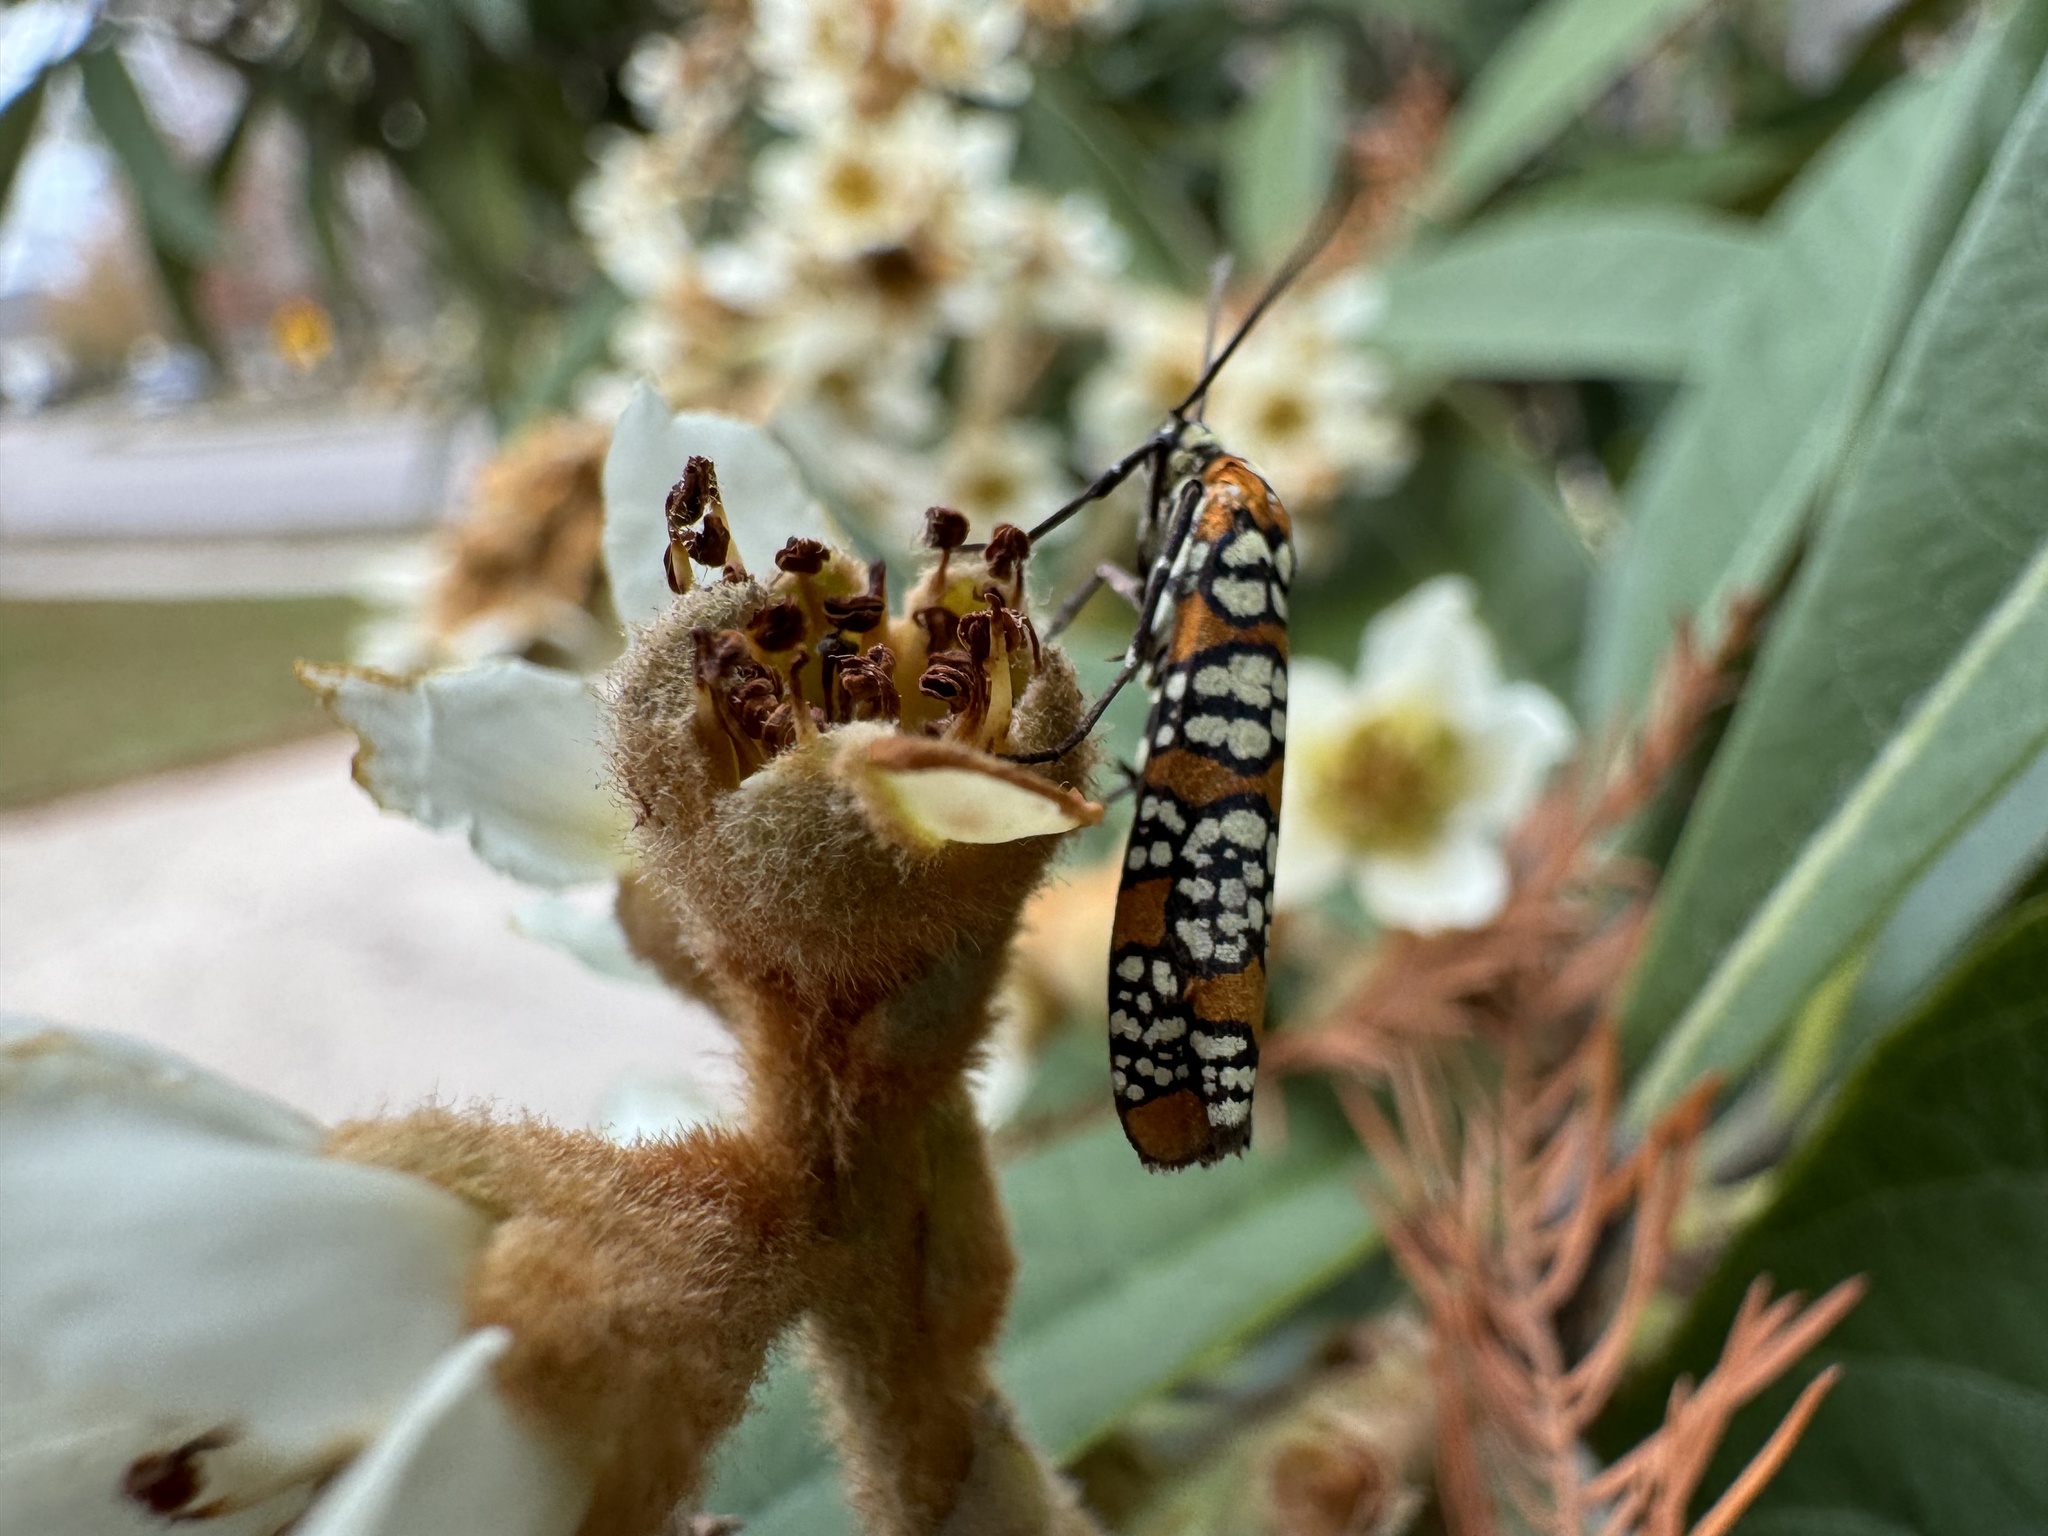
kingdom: Animalia
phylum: Arthropoda
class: Insecta
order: Lepidoptera
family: Attevidae
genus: Atteva
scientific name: Atteva punctella
